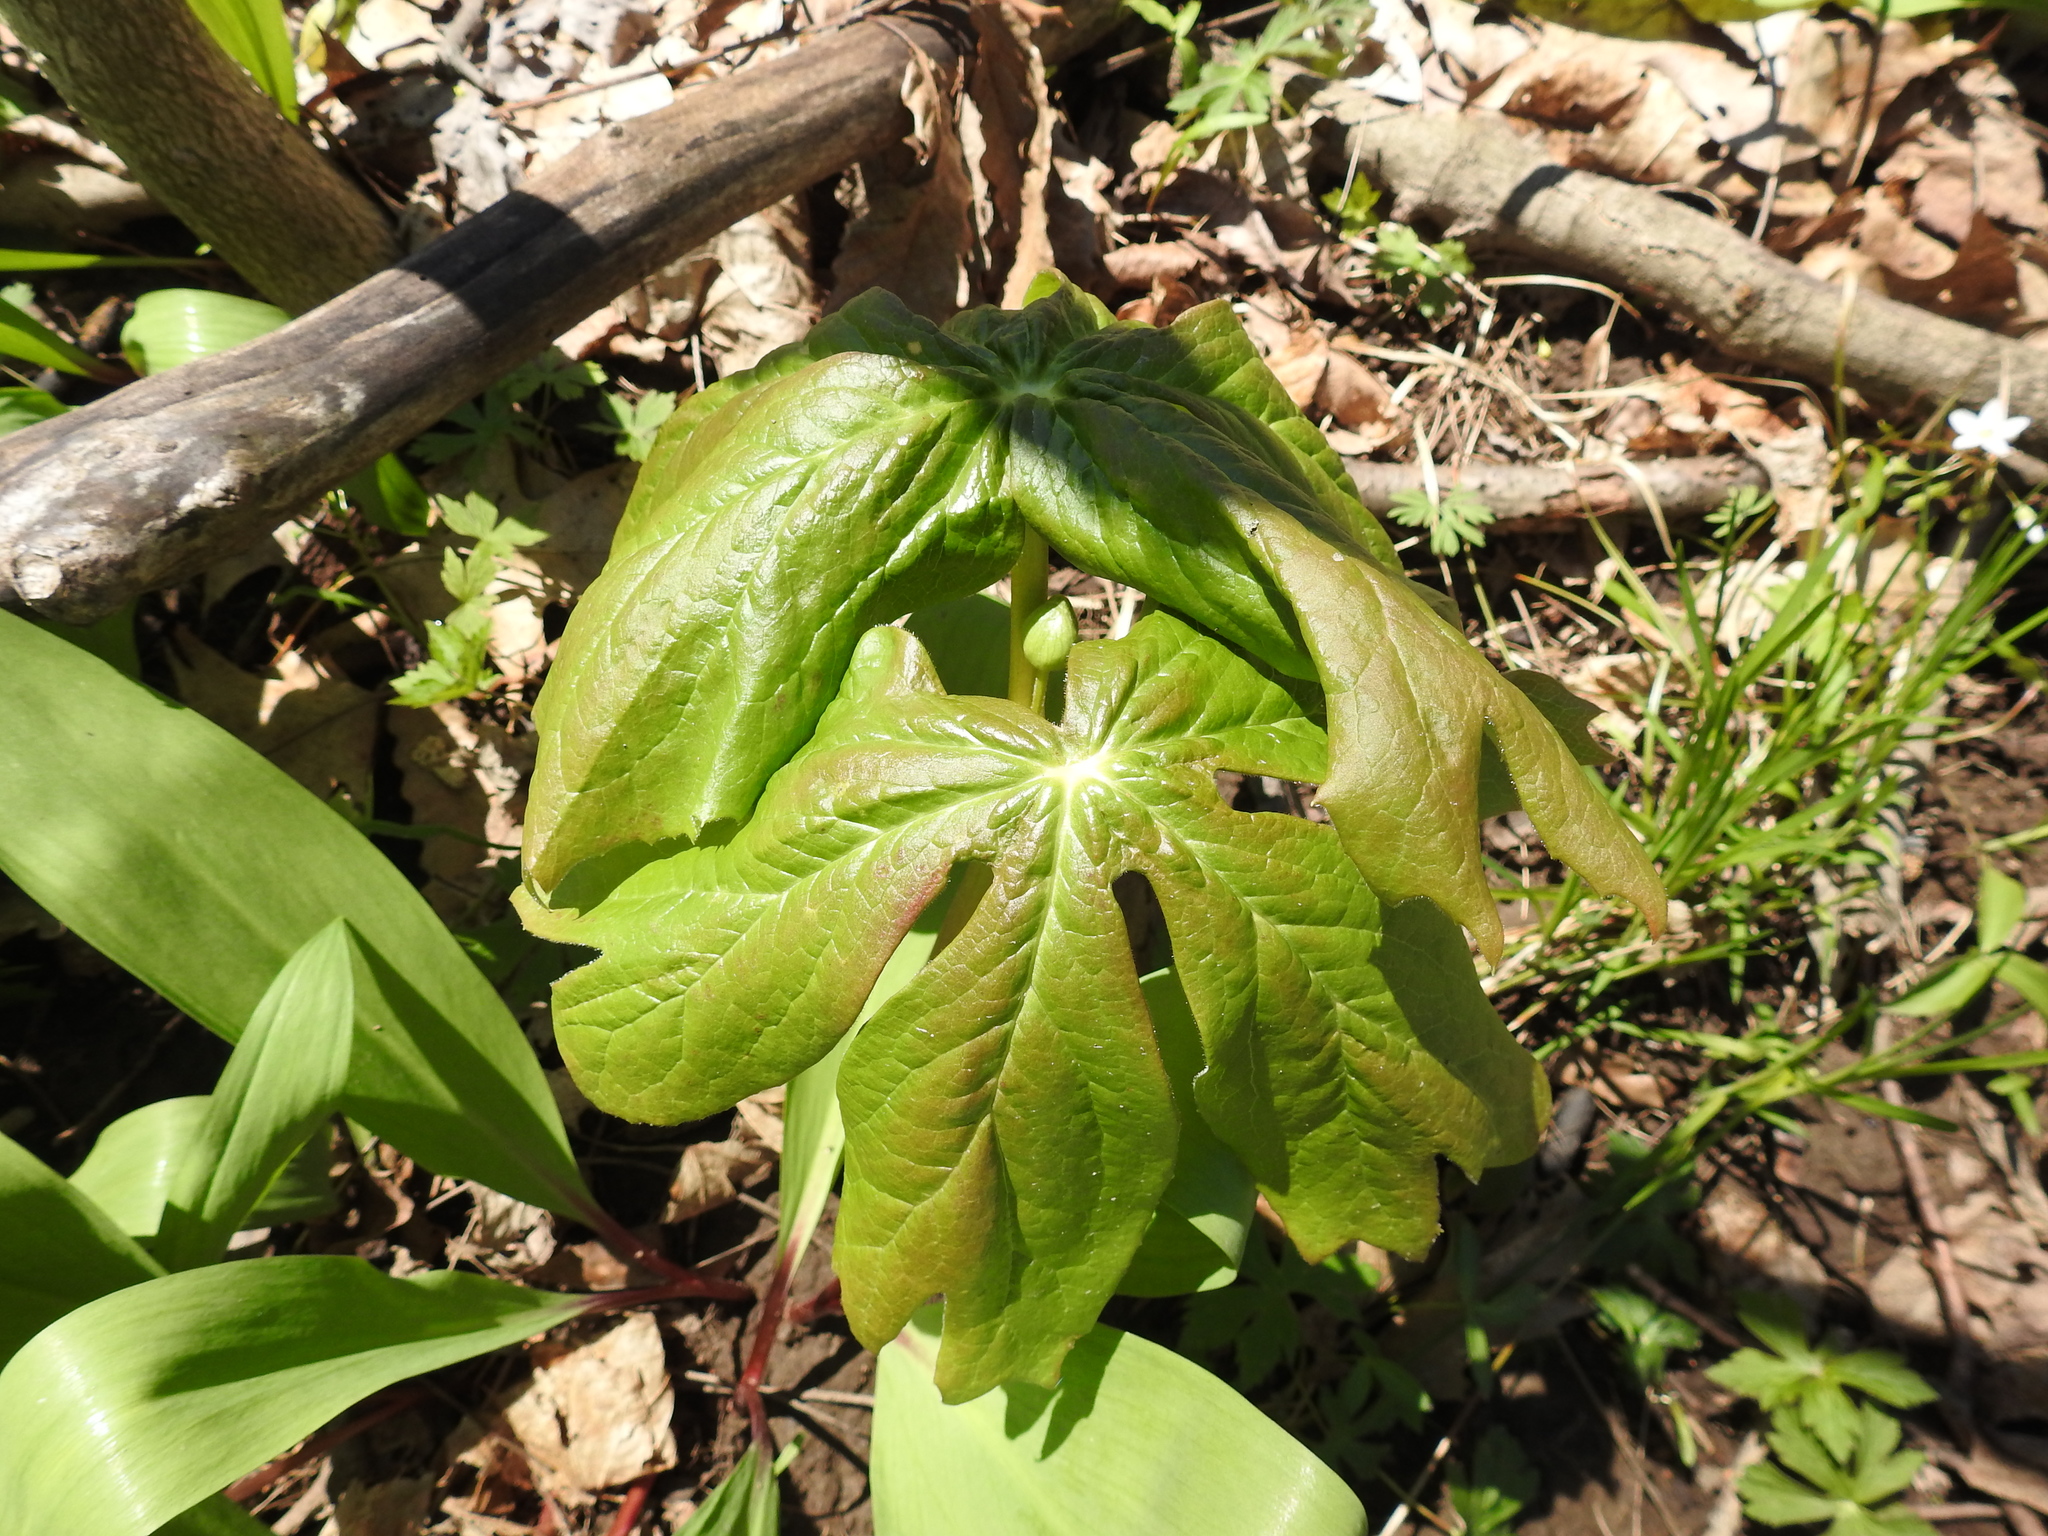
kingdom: Plantae
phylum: Tracheophyta
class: Magnoliopsida
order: Ranunculales
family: Berberidaceae
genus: Podophyllum
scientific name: Podophyllum peltatum
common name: Wild mandrake
